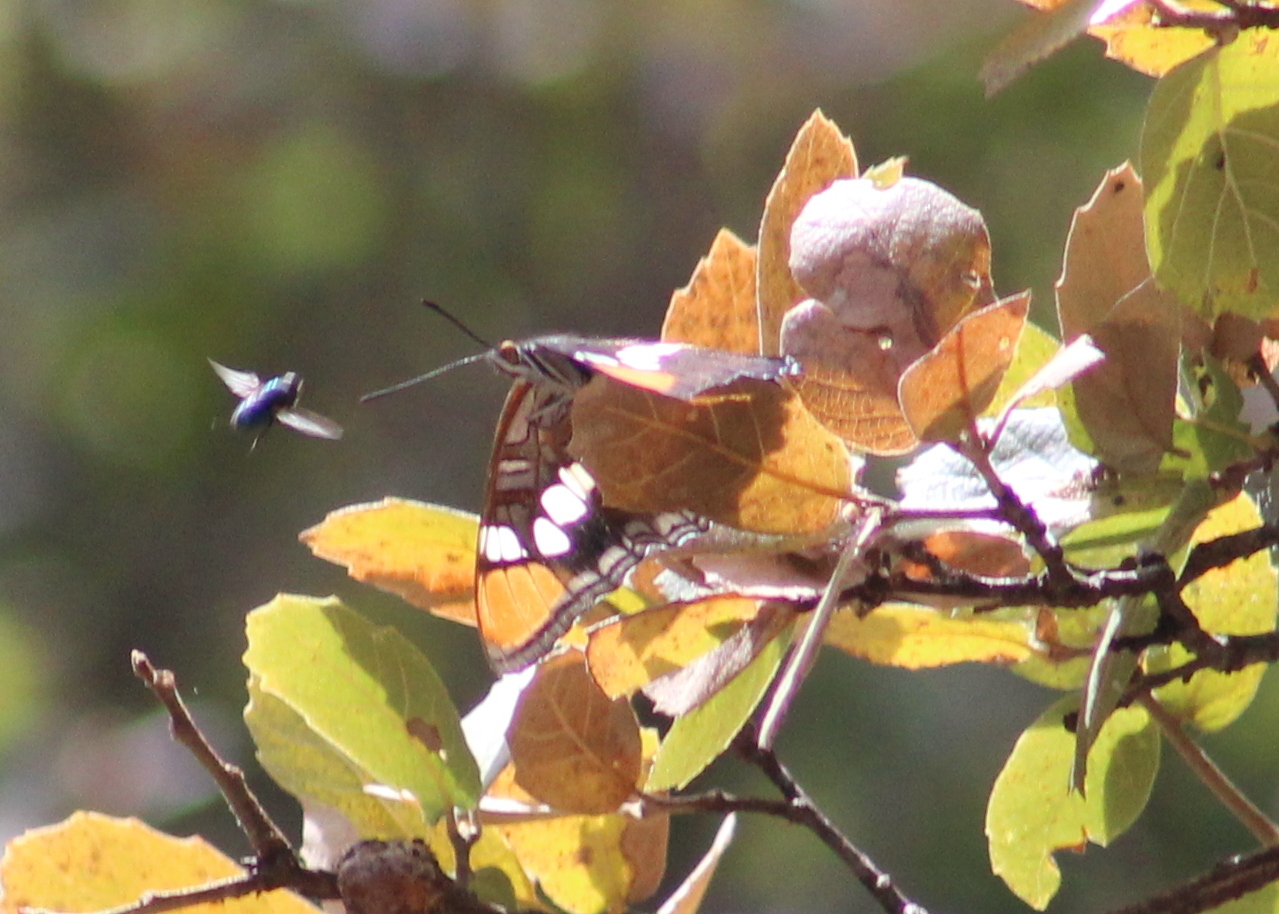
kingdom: Animalia
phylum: Arthropoda
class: Insecta
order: Lepidoptera
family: Nymphalidae
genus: Limenitis
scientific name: Limenitis bredowii
